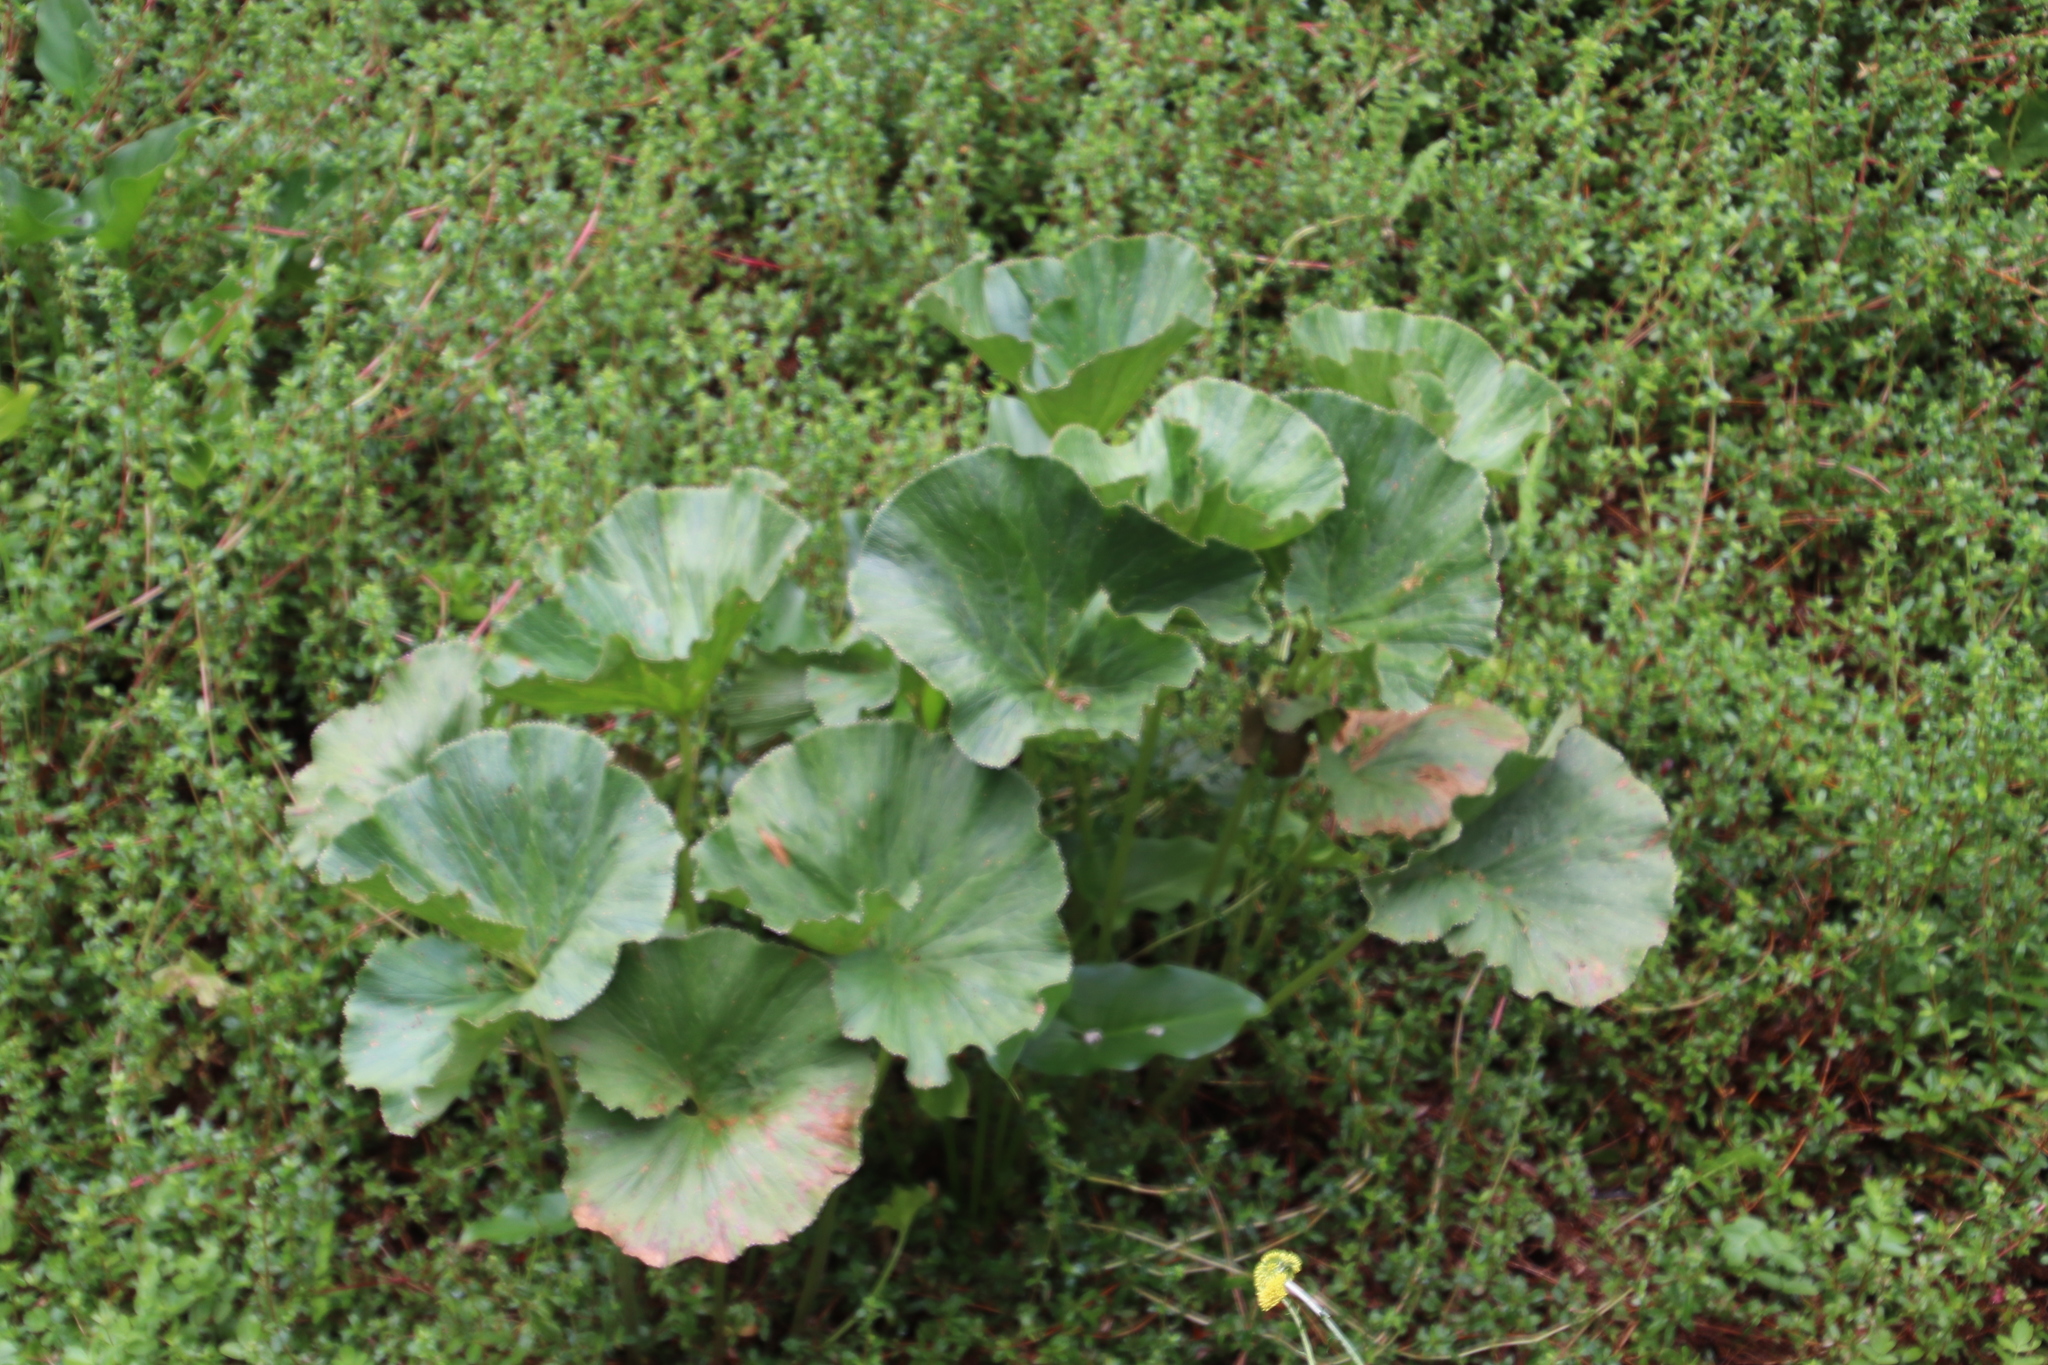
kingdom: Plantae
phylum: Tracheophyta
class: Magnoliopsida
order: Gunnerales
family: Gunneraceae
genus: Gunnera
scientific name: Gunnera perpensa
